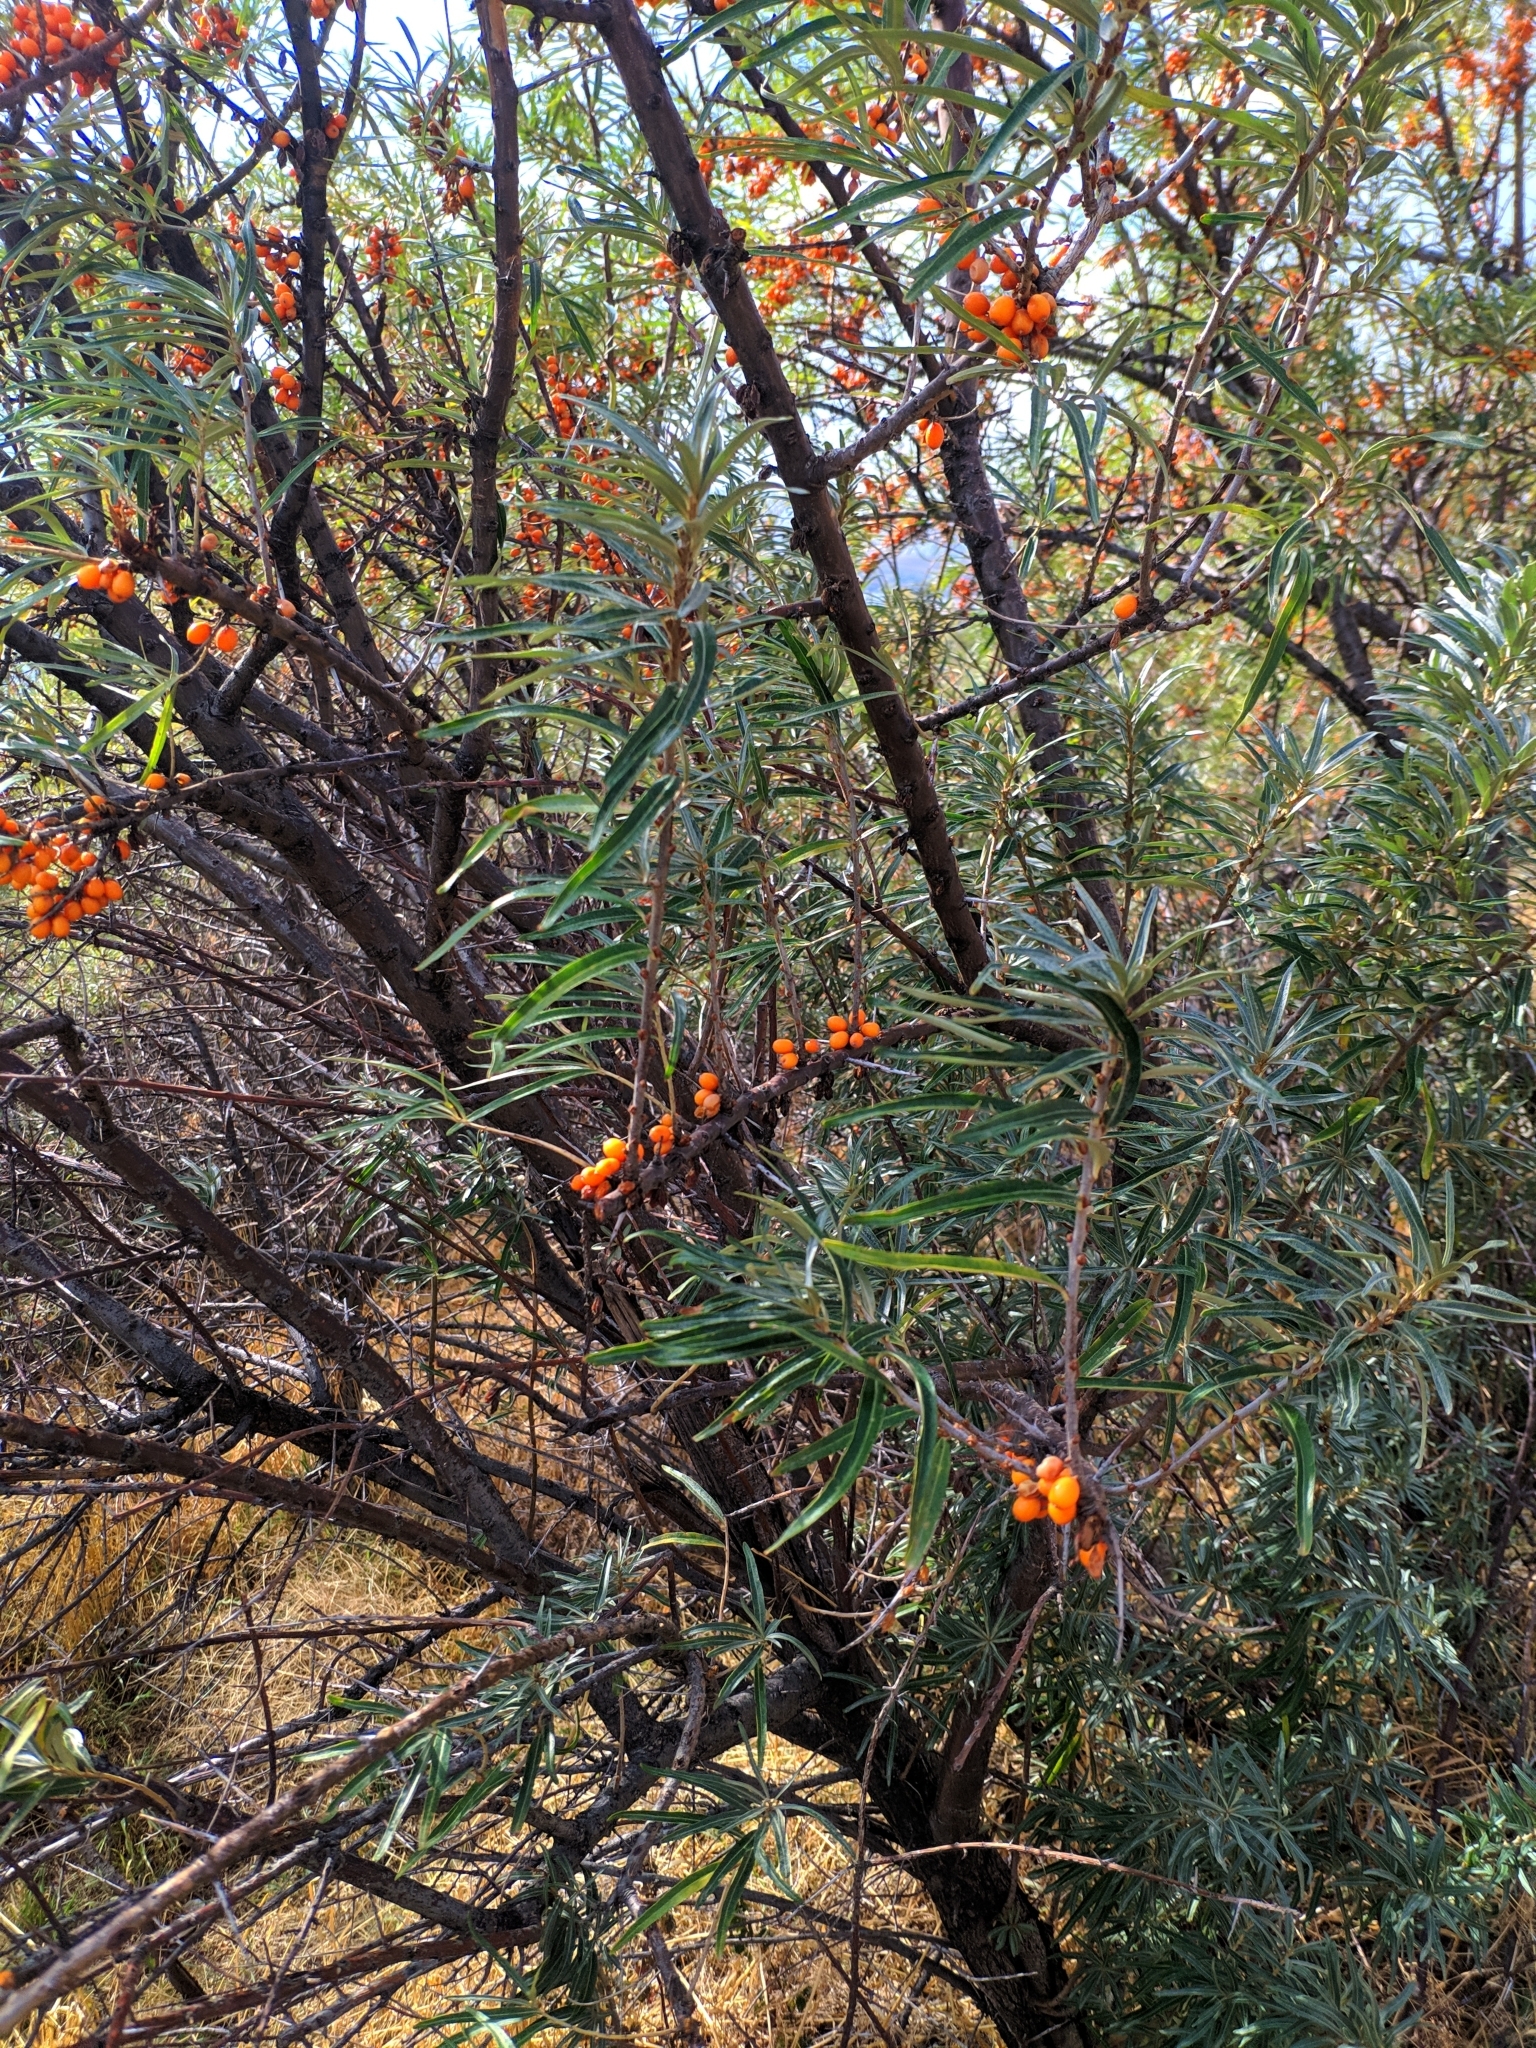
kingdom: Plantae
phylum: Tracheophyta
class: Magnoliopsida
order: Rosales
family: Elaeagnaceae
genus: Hippophae
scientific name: Hippophae rhamnoides
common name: Sea-buckthorn
